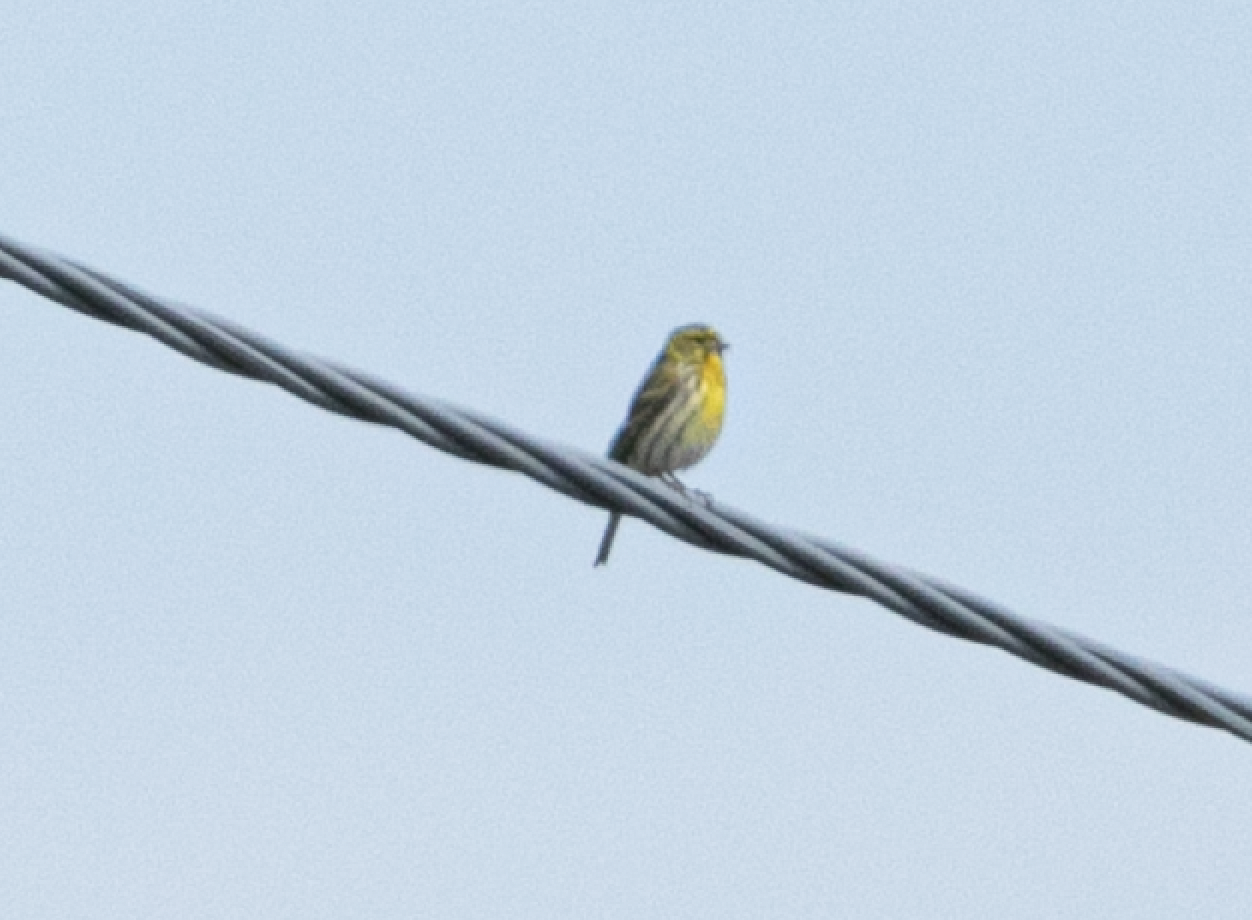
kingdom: Animalia
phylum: Chordata
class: Aves
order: Passeriformes
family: Fringillidae
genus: Serinus
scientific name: Serinus serinus
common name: European serin
